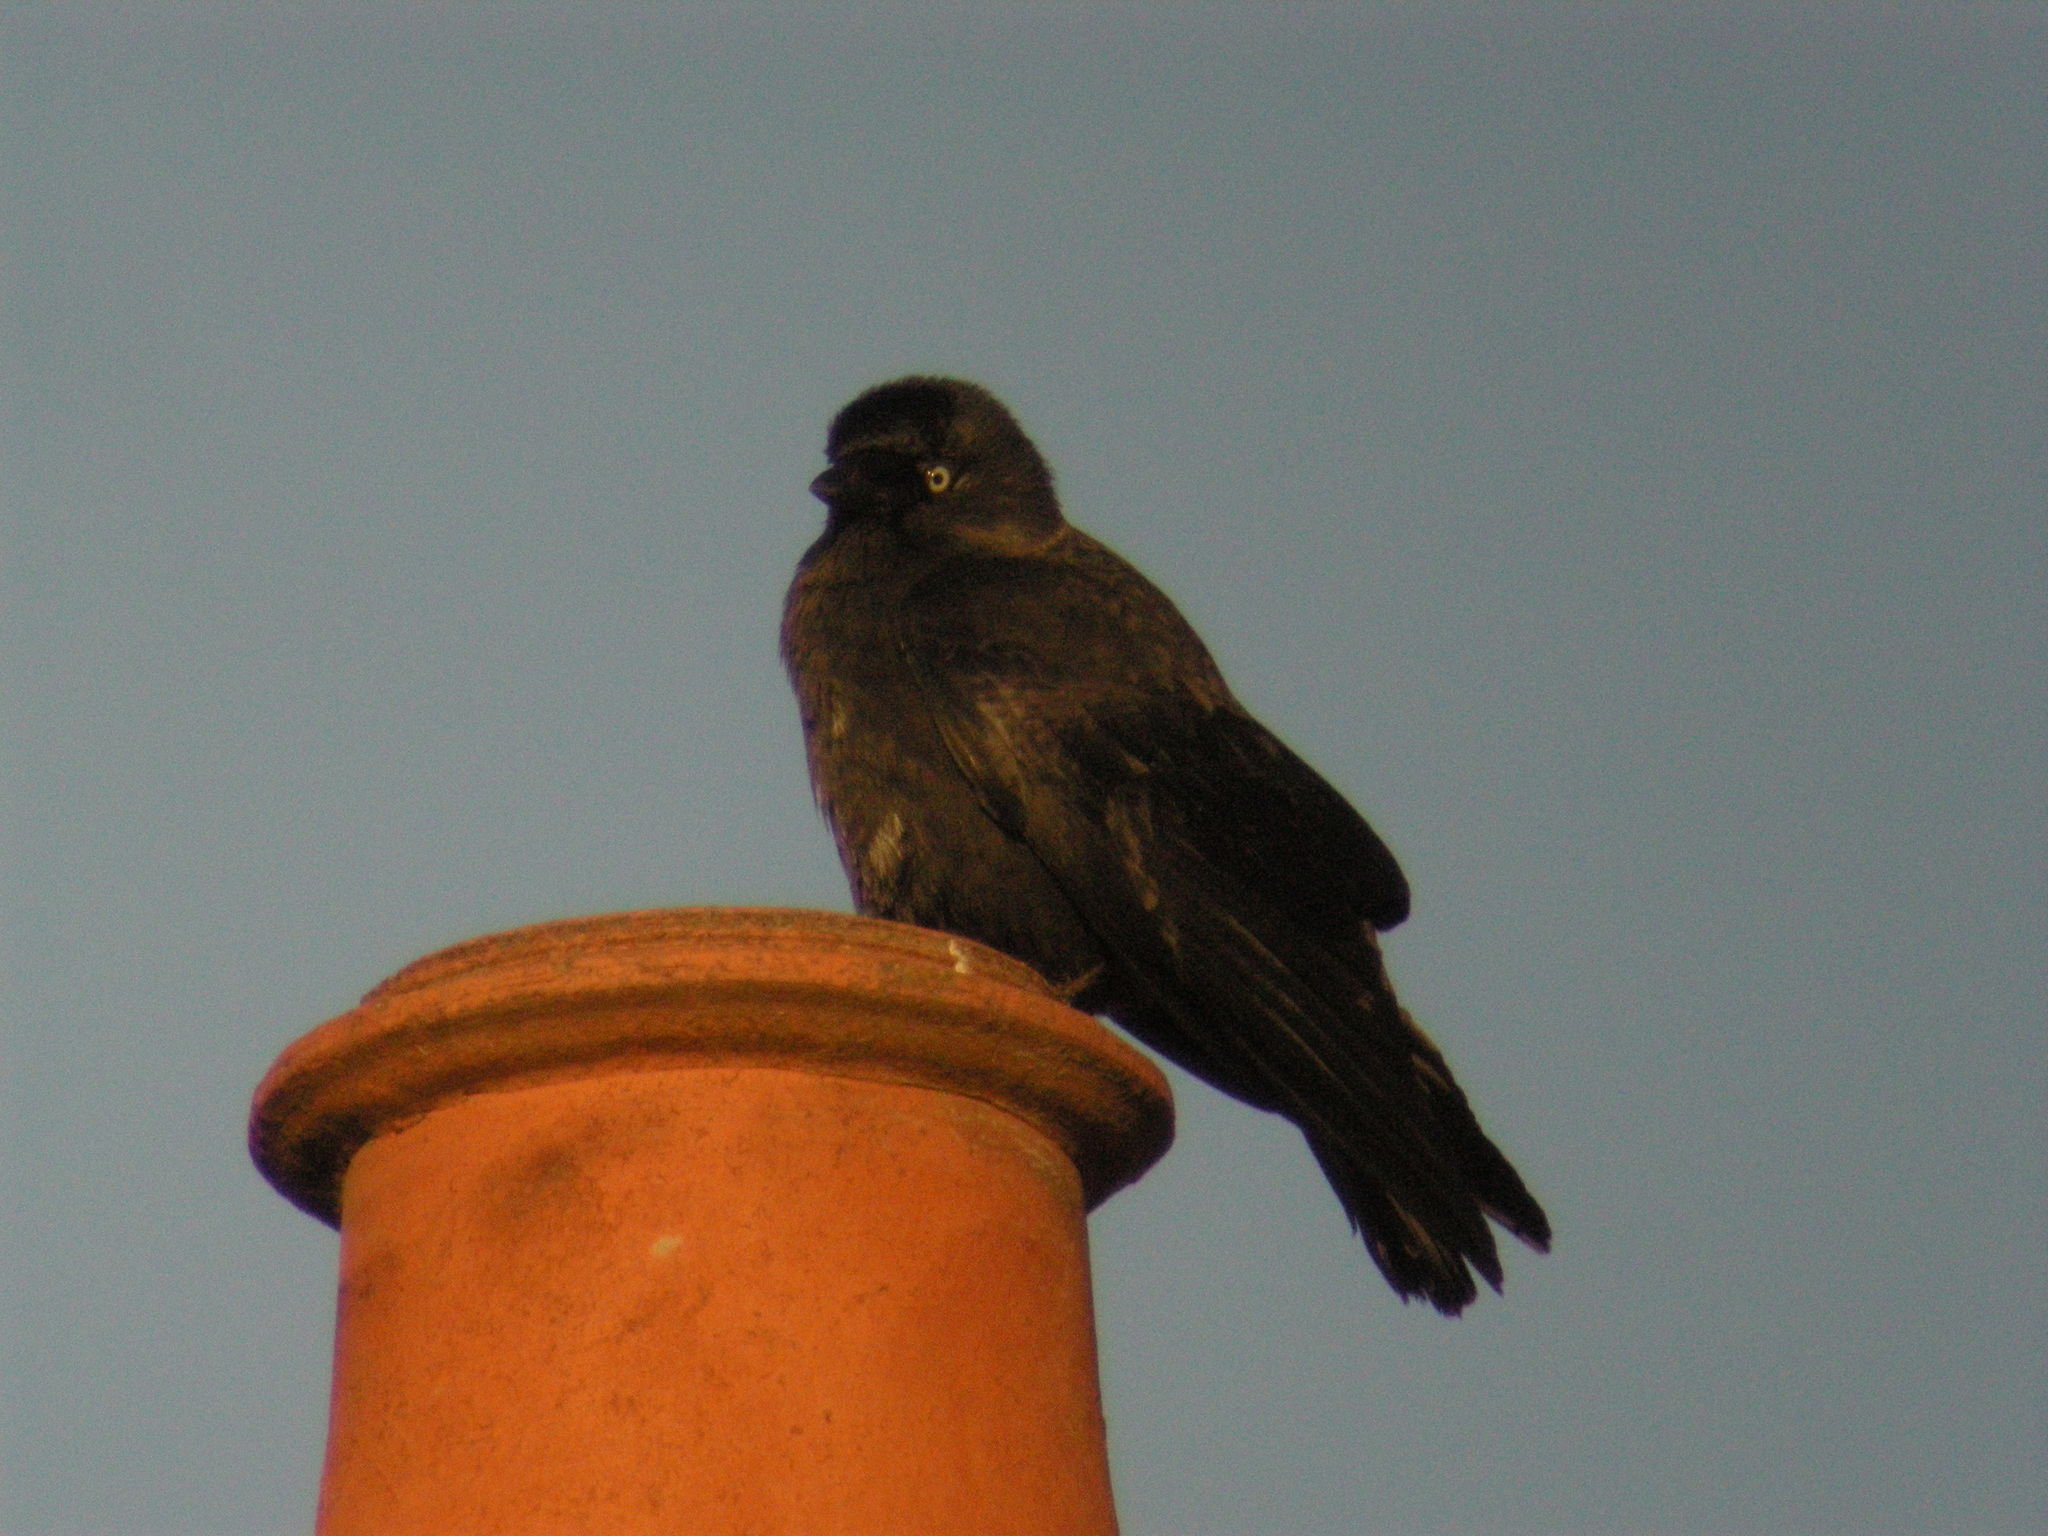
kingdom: Animalia
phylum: Chordata
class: Aves
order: Passeriformes
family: Corvidae
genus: Coloeus
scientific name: Coloeus monedula
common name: Western jackdaw
